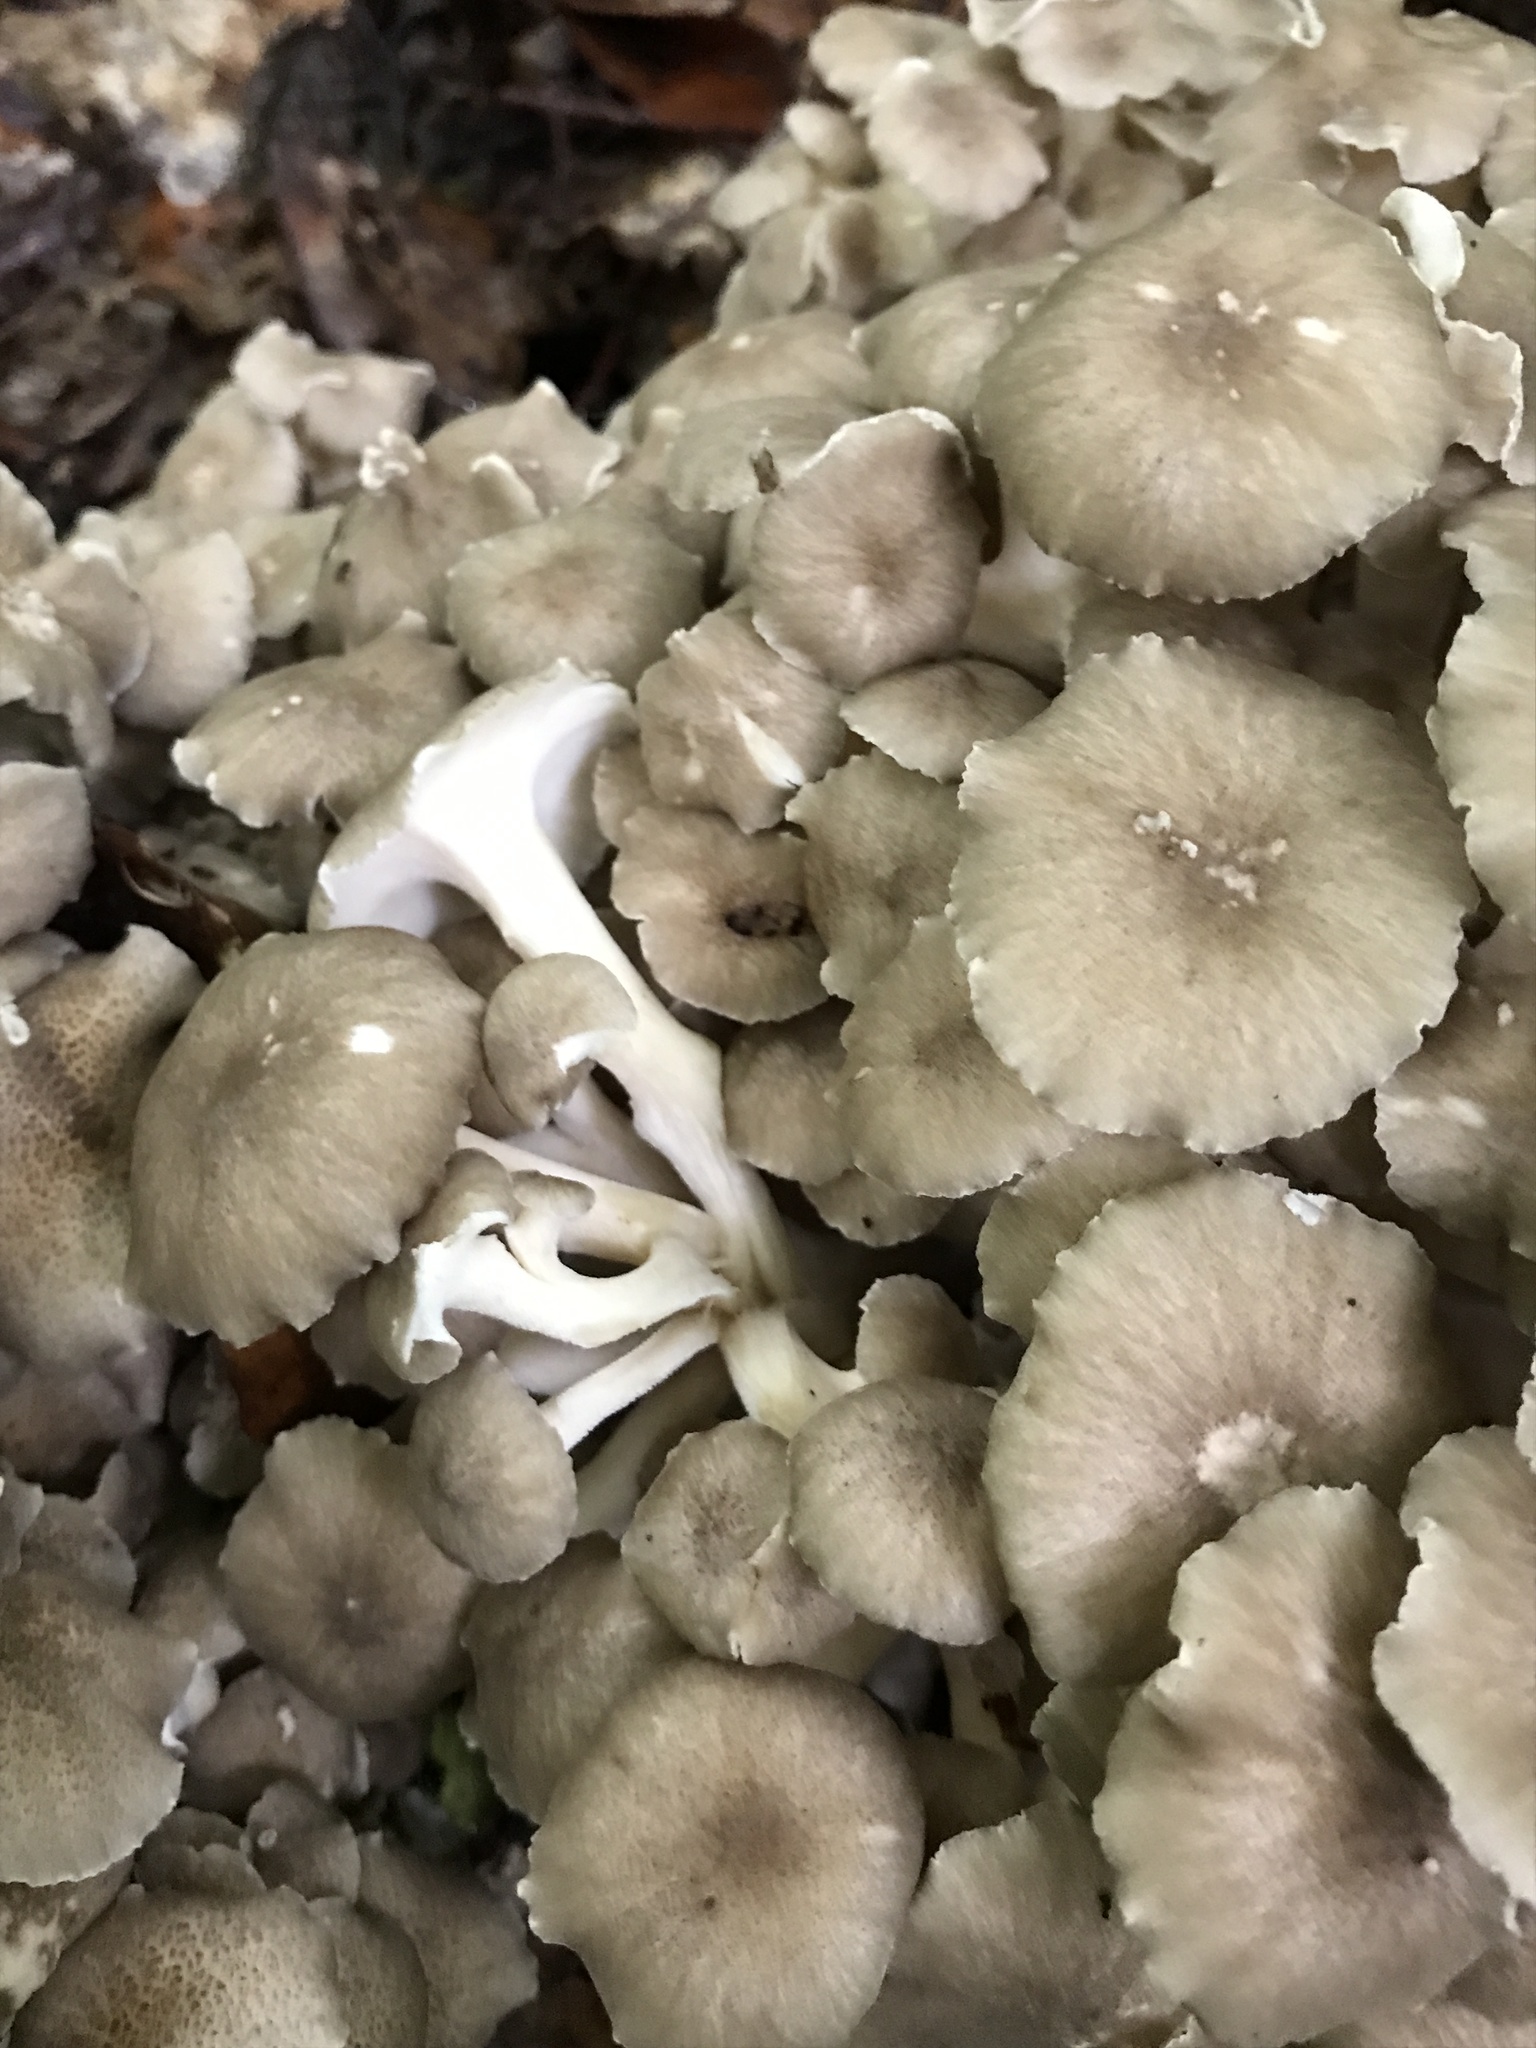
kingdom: Fungi
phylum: Basidiomycota
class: Agaricomycetes
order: Polyporales
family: Polyporaceae
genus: Polyporus
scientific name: Polyporus umbellatus
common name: Umbrella polypore
